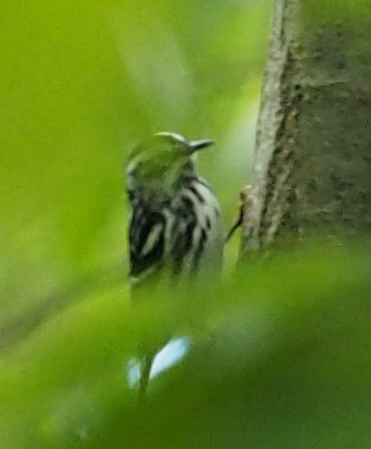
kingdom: Animalia
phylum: Chordata
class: Aves
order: Passeriformes
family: Parulidae
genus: Mniotilta
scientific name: Mniotilta varia
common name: Black-and-white warbler
